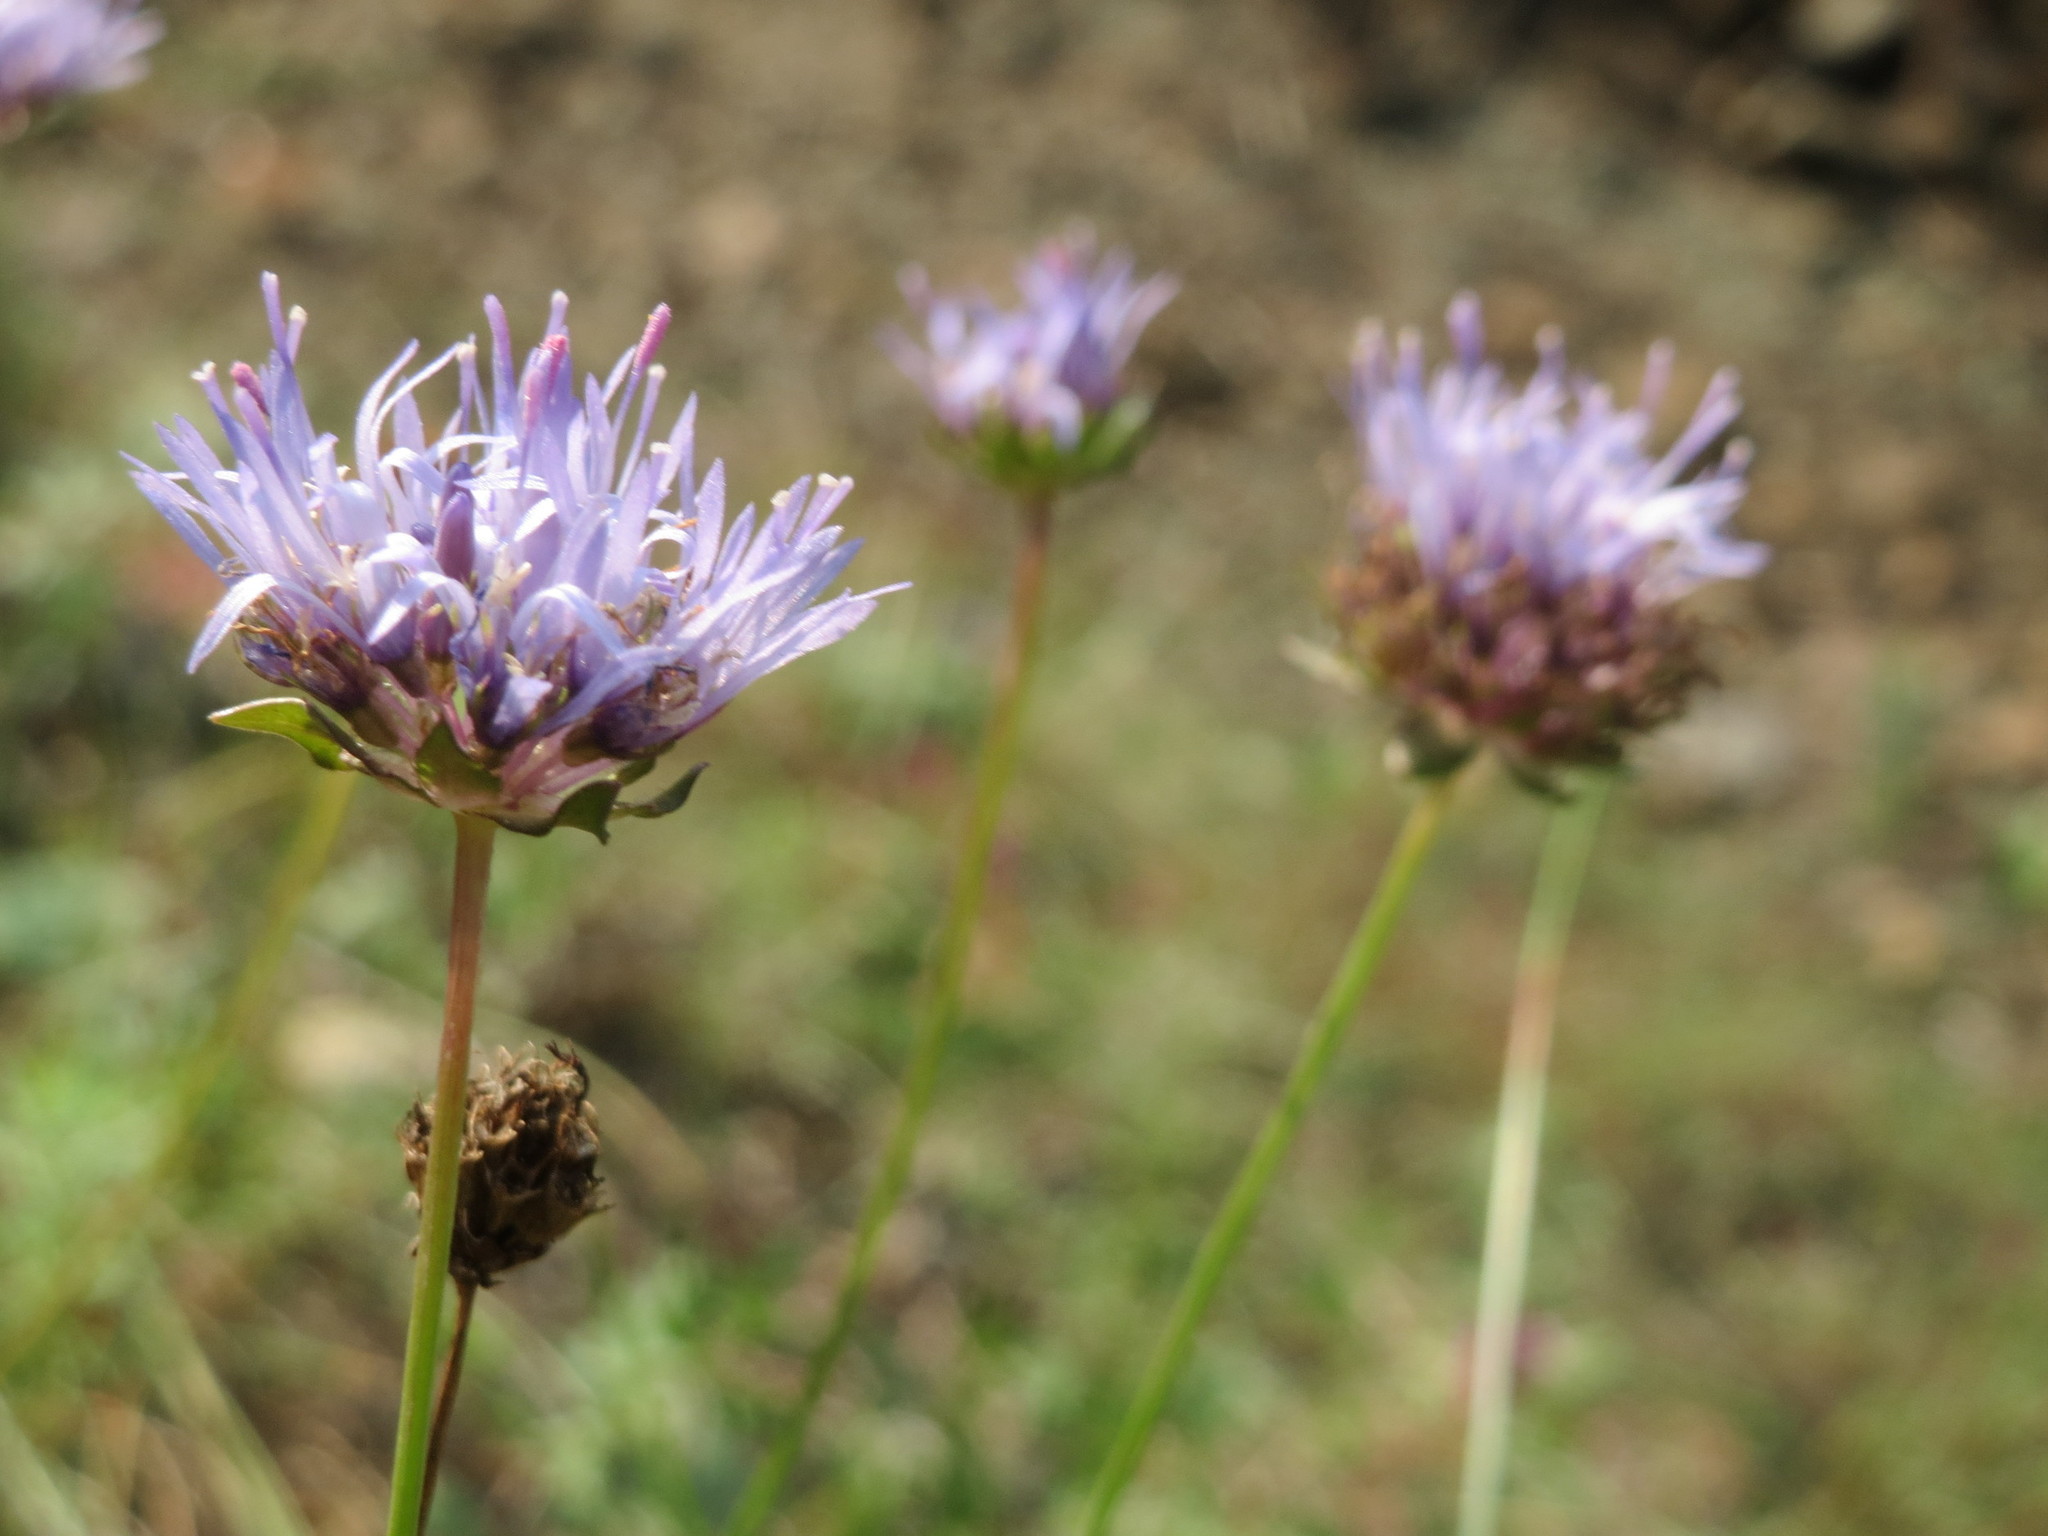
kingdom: Plantae
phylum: Tracheophyta
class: Magnoliopsida
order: Asterales
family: Campanulaceae
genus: Jasione
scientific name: Jasione montana
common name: Sheep's-bit
